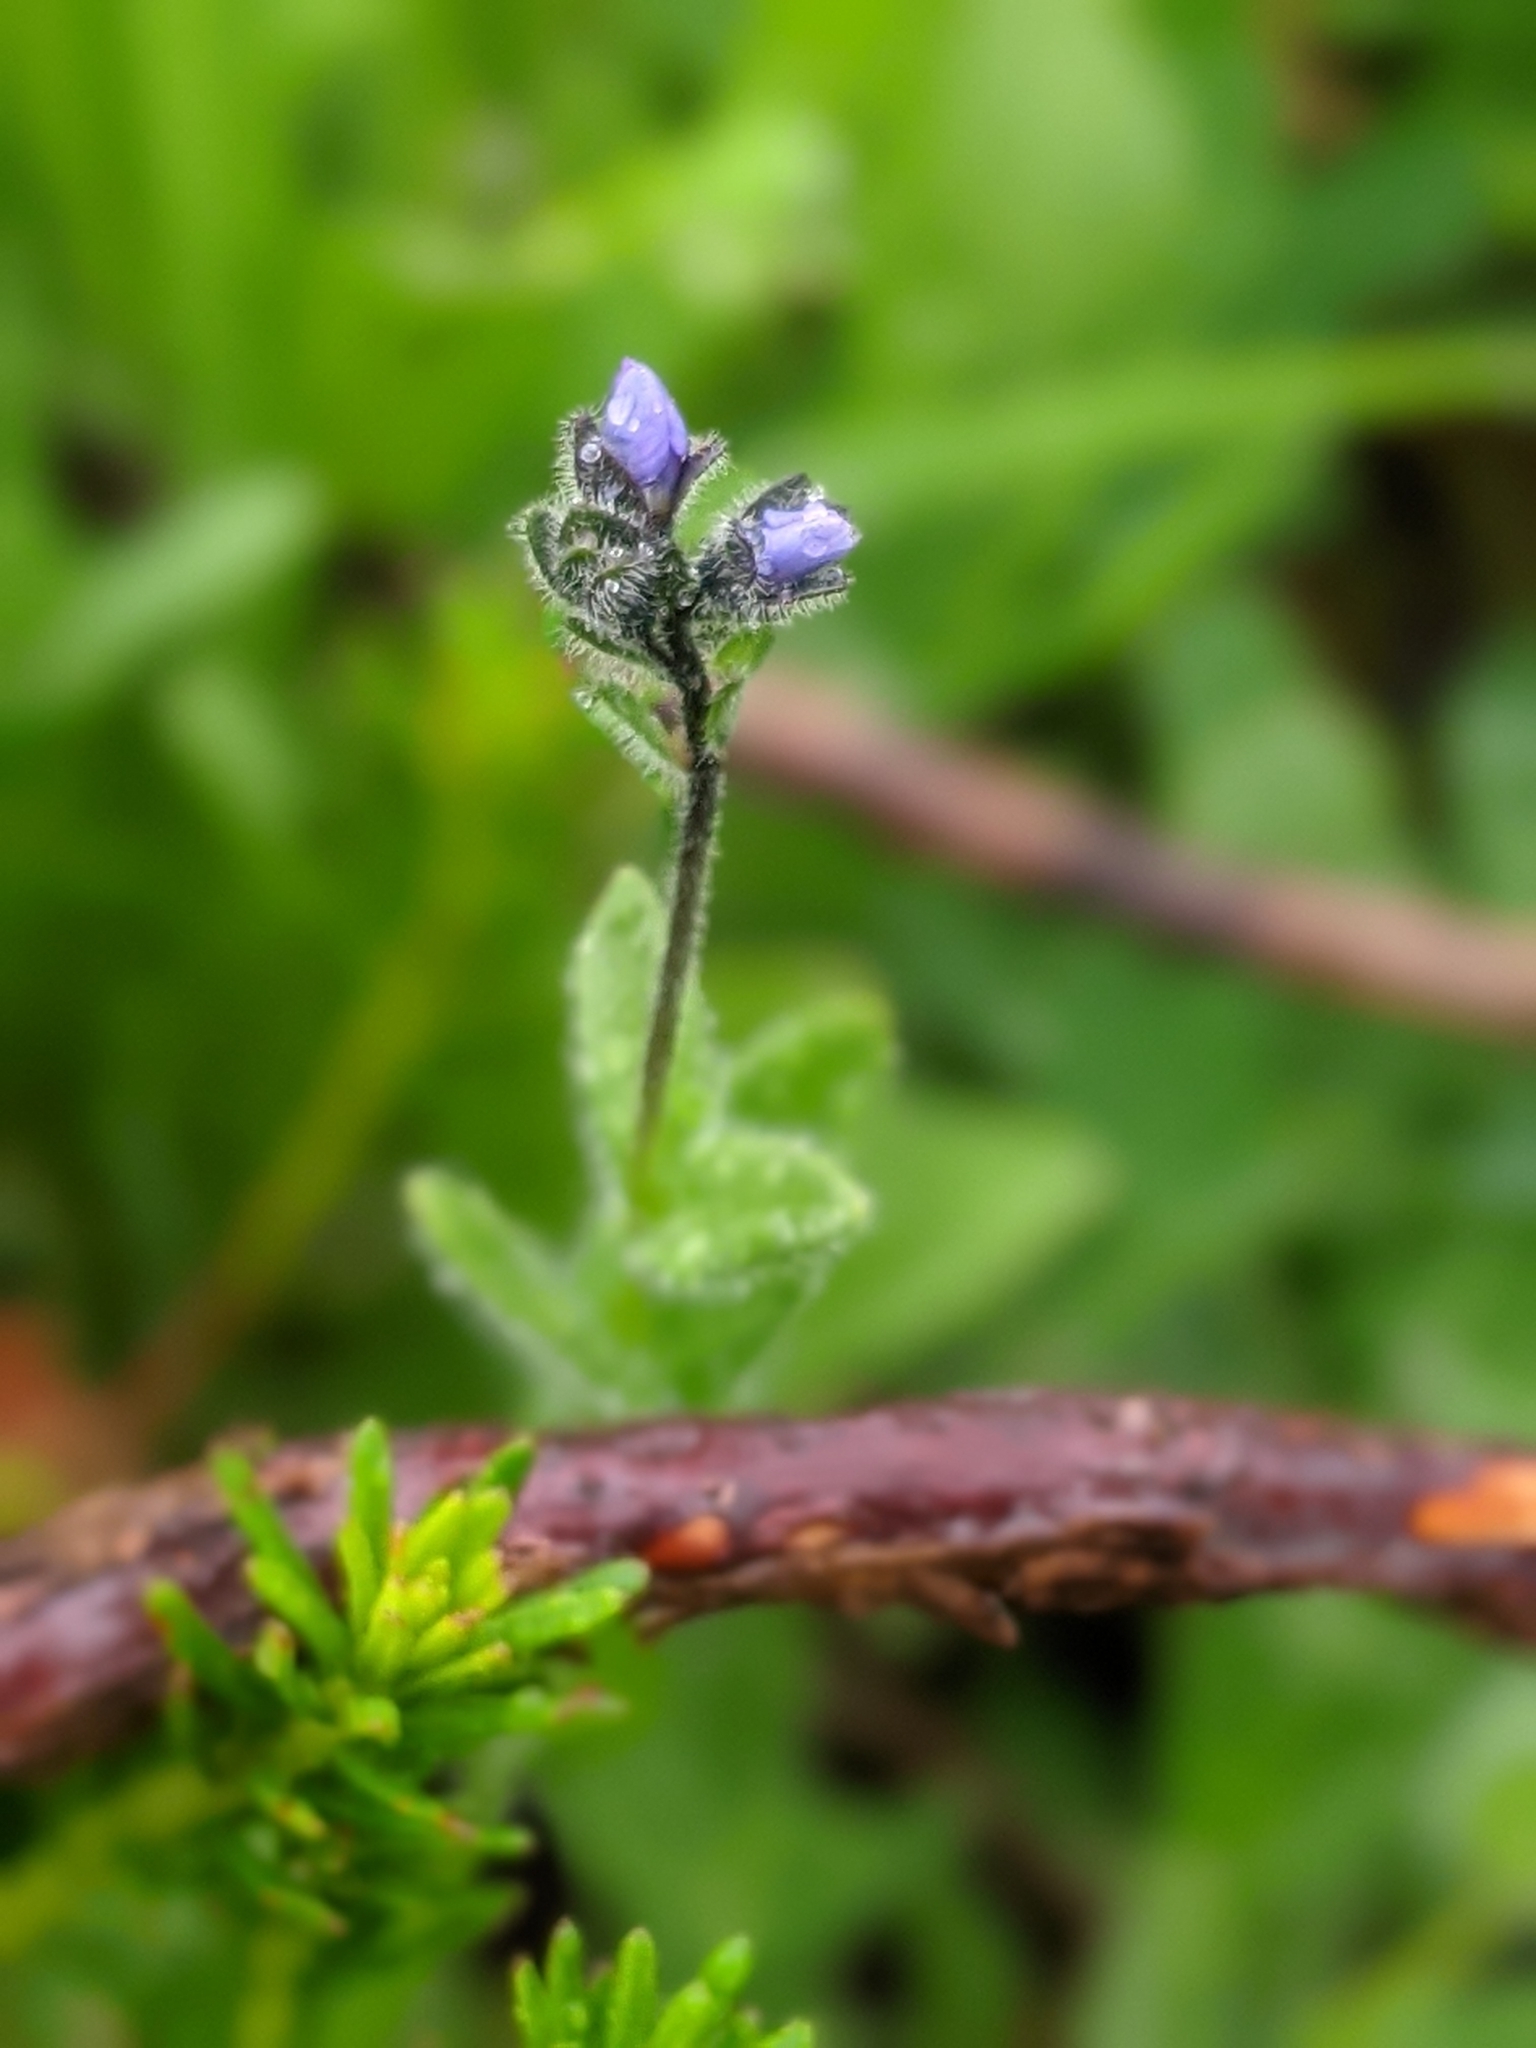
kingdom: Plantae
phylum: Tracheophyta
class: Magnoliopsida
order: Lamiales
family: Plantaginaceae
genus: Veronica
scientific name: Veronica wormskjoldii
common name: American alpine speedwell
